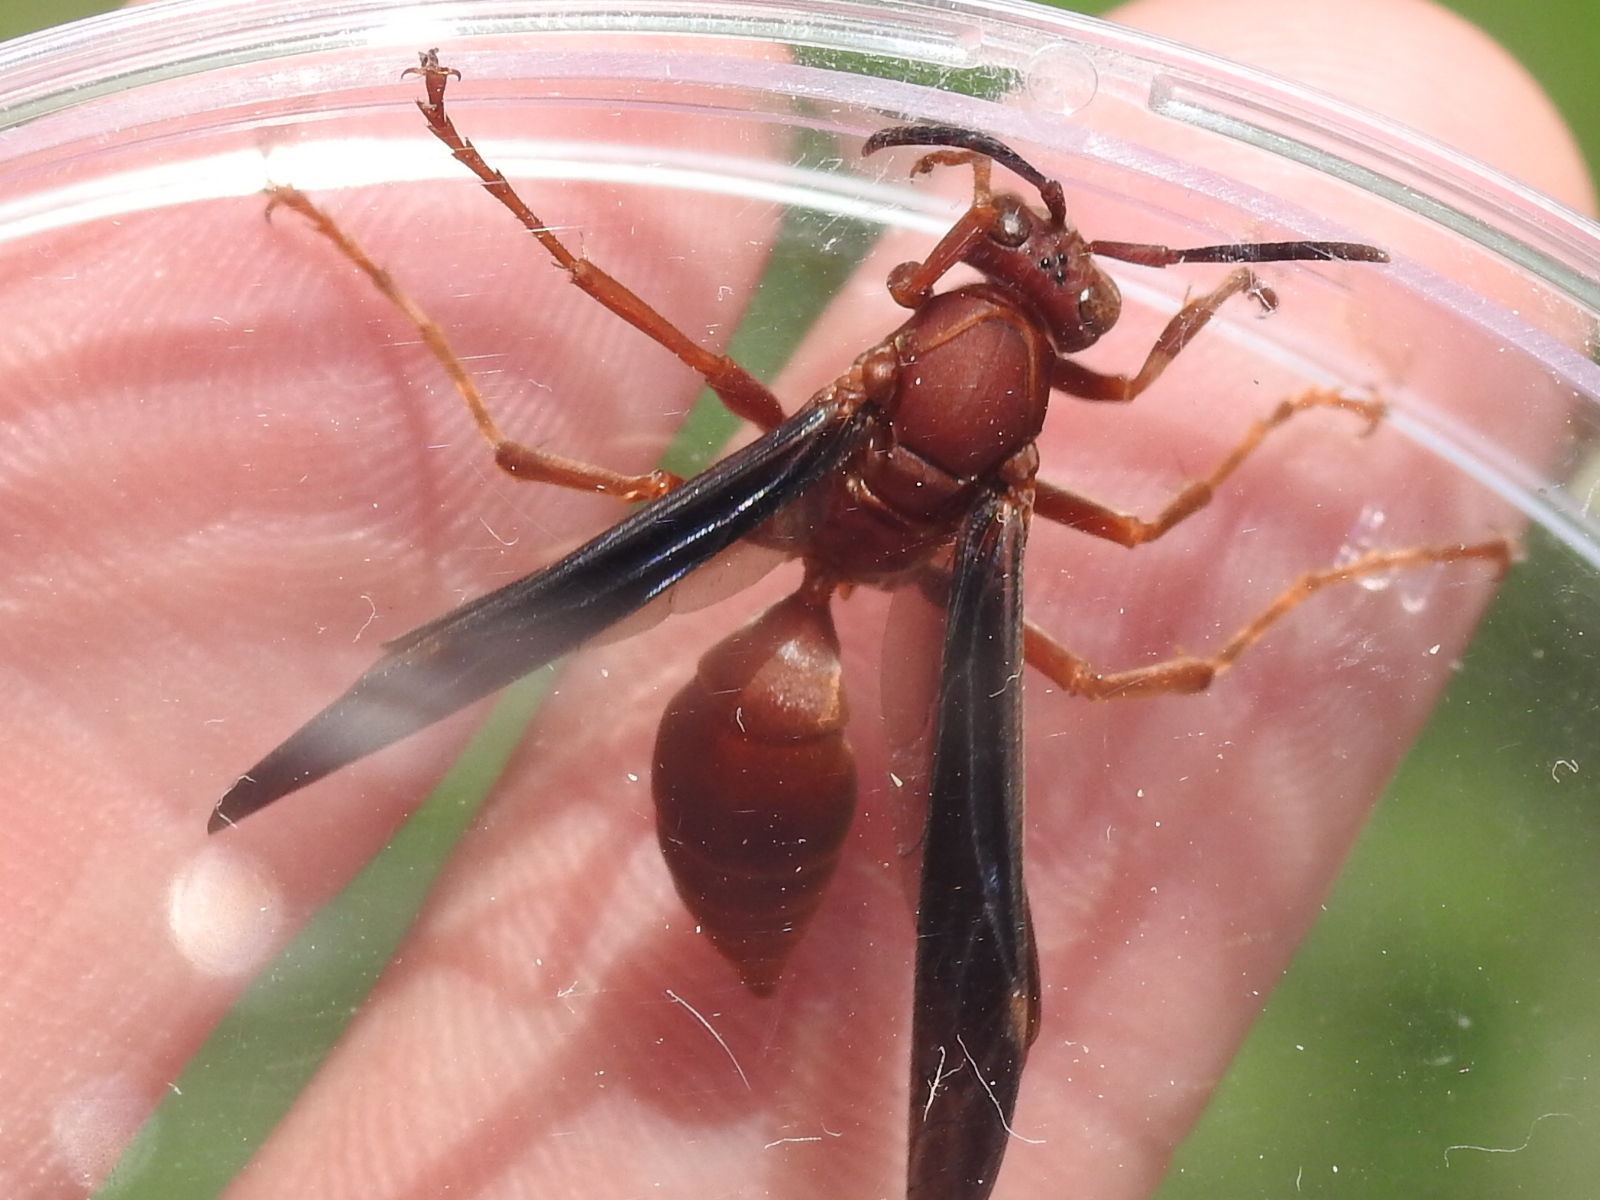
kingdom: Animalia
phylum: Arthropoda
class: Insecta
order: Hymenoptera
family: Eumenidae
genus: Polistes
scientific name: Polistes carolina
